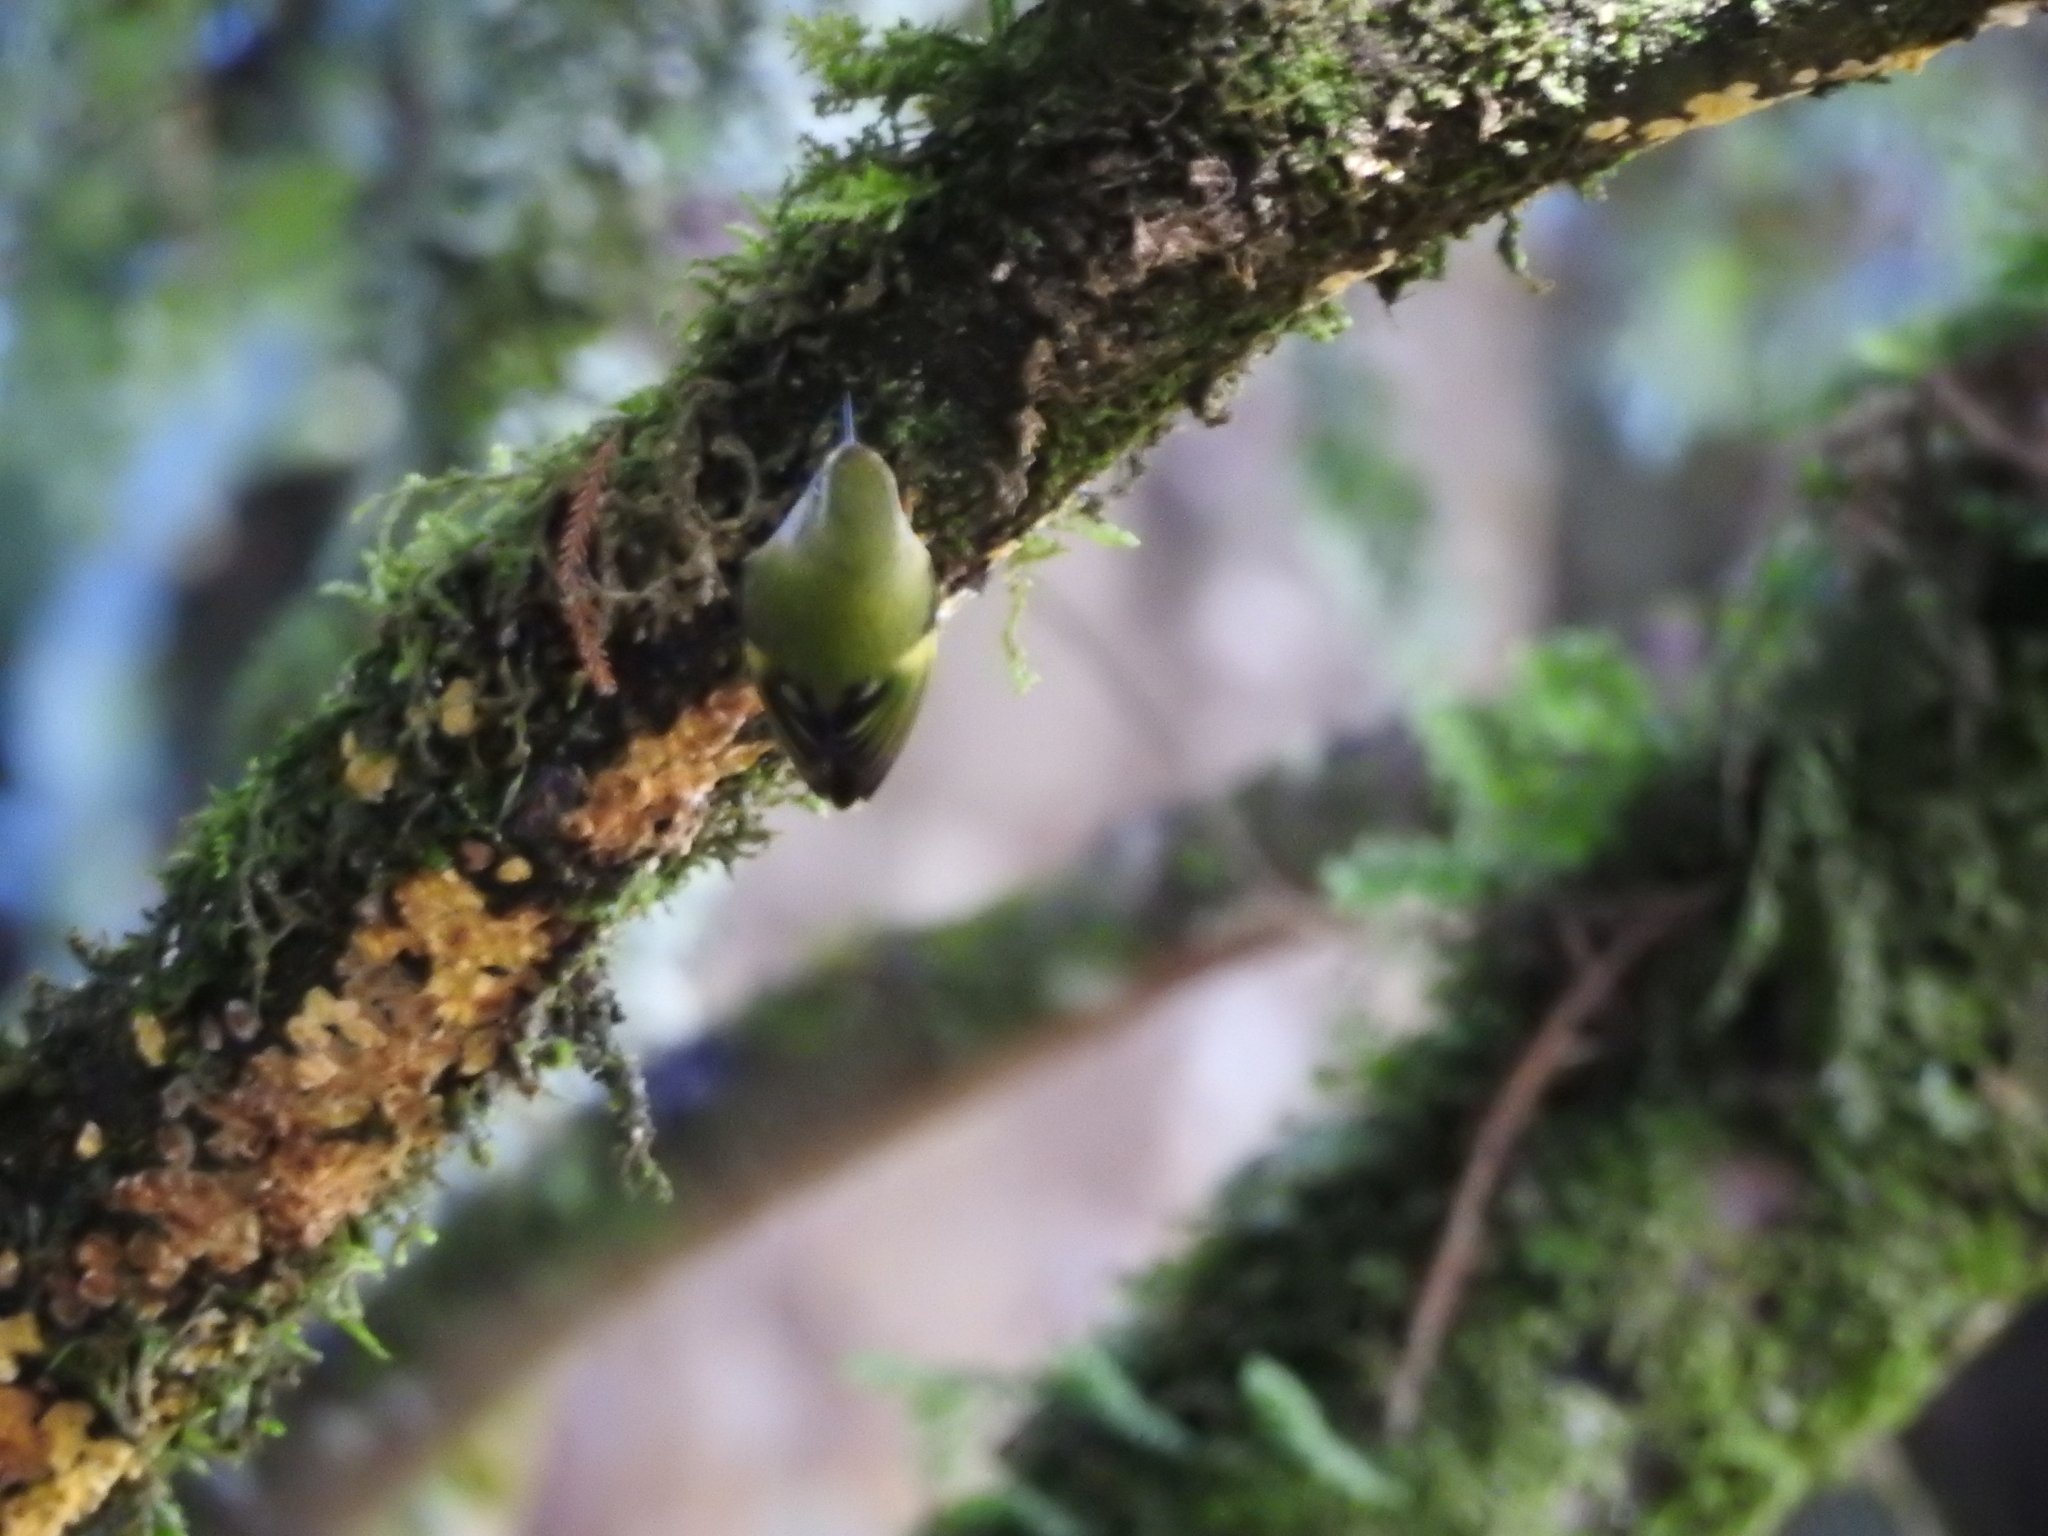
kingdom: Animalia
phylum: Chordata
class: Aves
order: Passeriformes
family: Acanthisittidae
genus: Acanthisitta
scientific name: Acanthisitta chloris
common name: Rifleman
